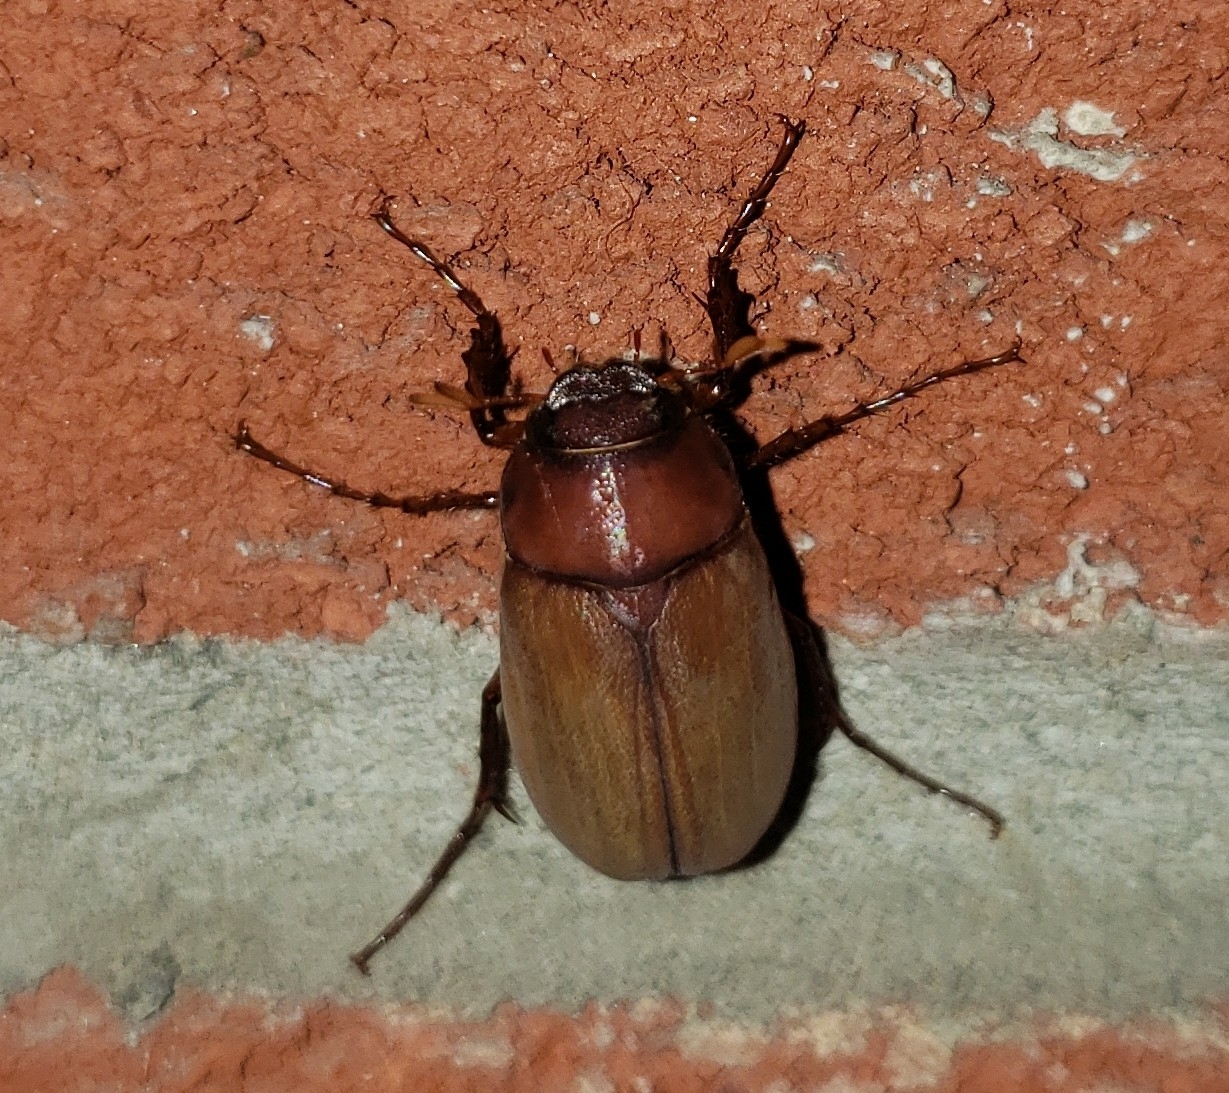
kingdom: Animalia
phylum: Arthropoda
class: Insecta
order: Coleoptera
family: Scarabaeidae
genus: Amphimallon
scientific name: Amphimallon majale
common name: European chafer
